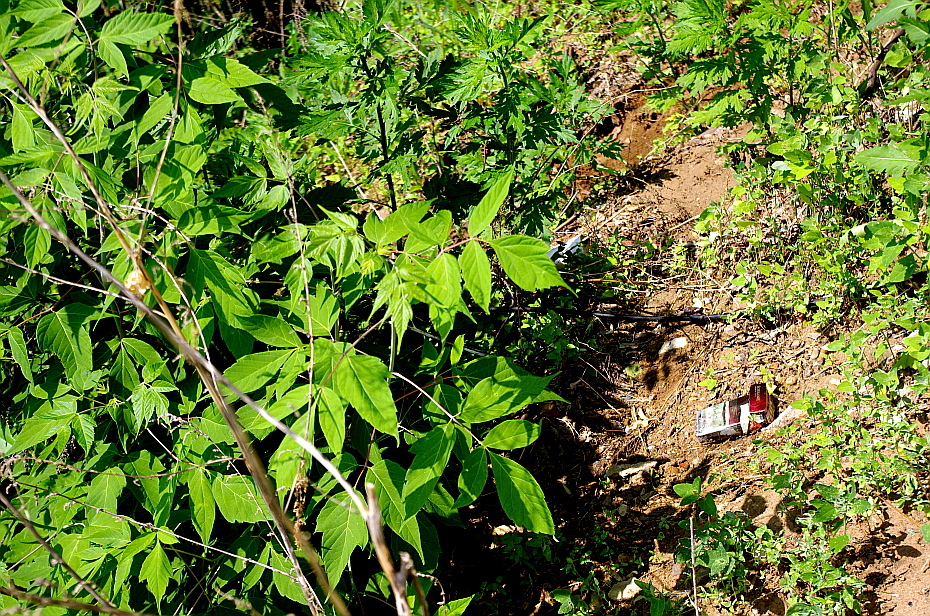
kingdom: Plantae
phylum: Tracheophyta
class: Magnoliopsida
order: Sapindales
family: Sapindaceae
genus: Acer
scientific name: Acer negundo
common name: Ashleaf maple
